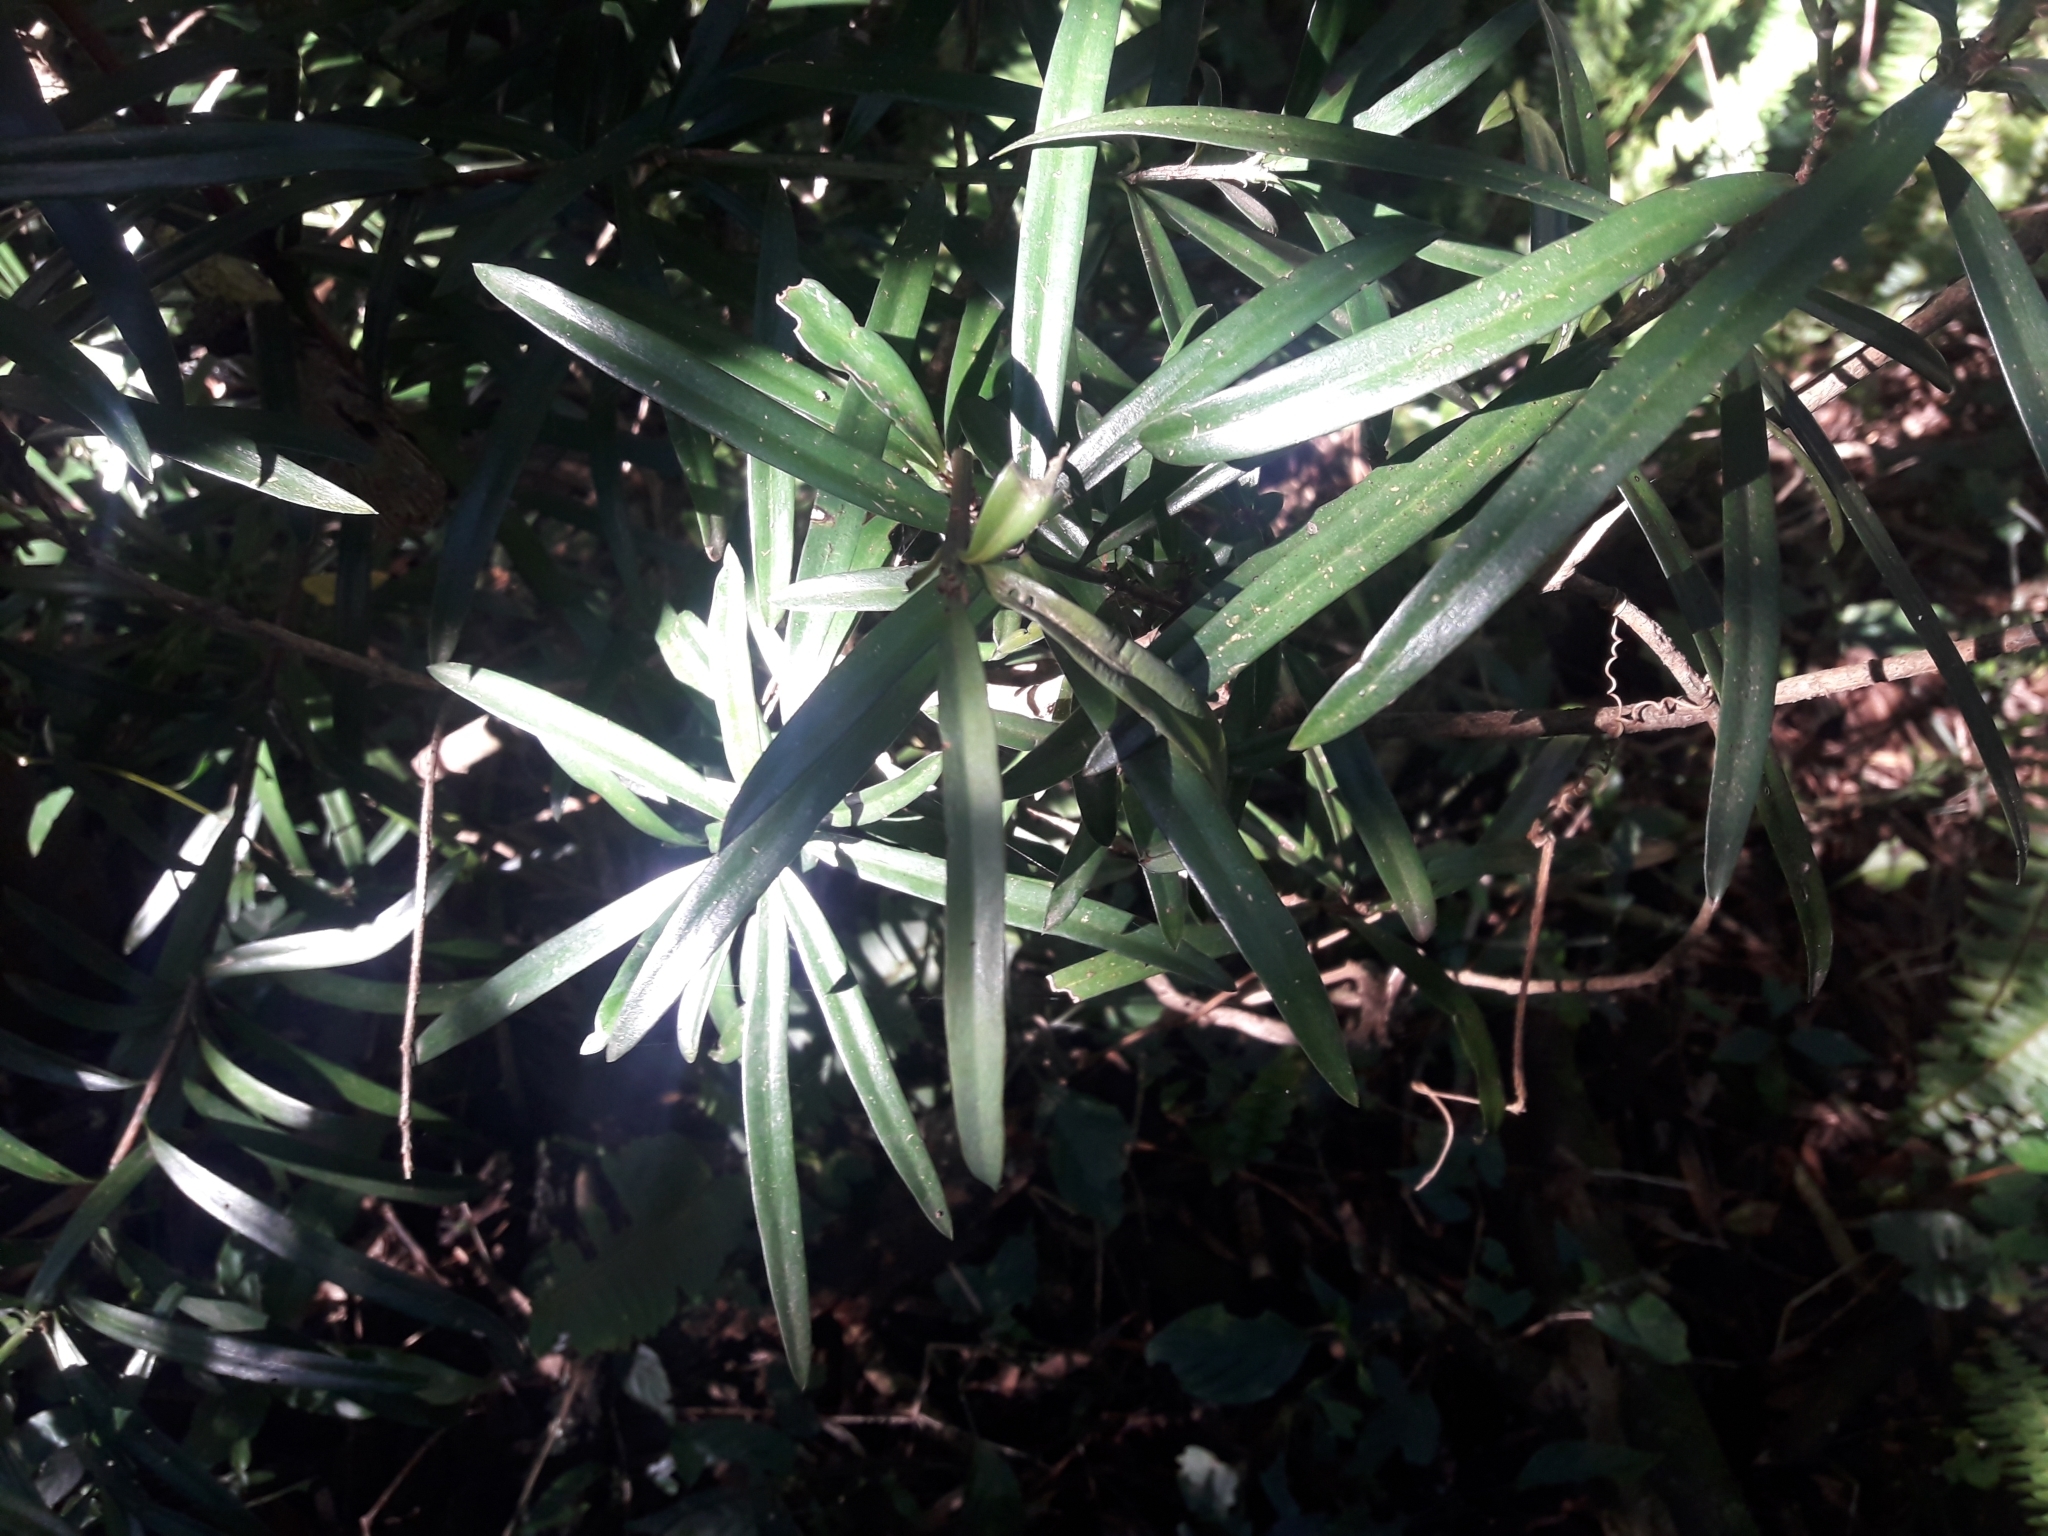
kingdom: Plantae
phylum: Tracheophyta
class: Pinopsida
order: Pinales
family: Podocarpaceae
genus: Podocarpus
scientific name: Podocarpus latifolius
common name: True yellowwood
